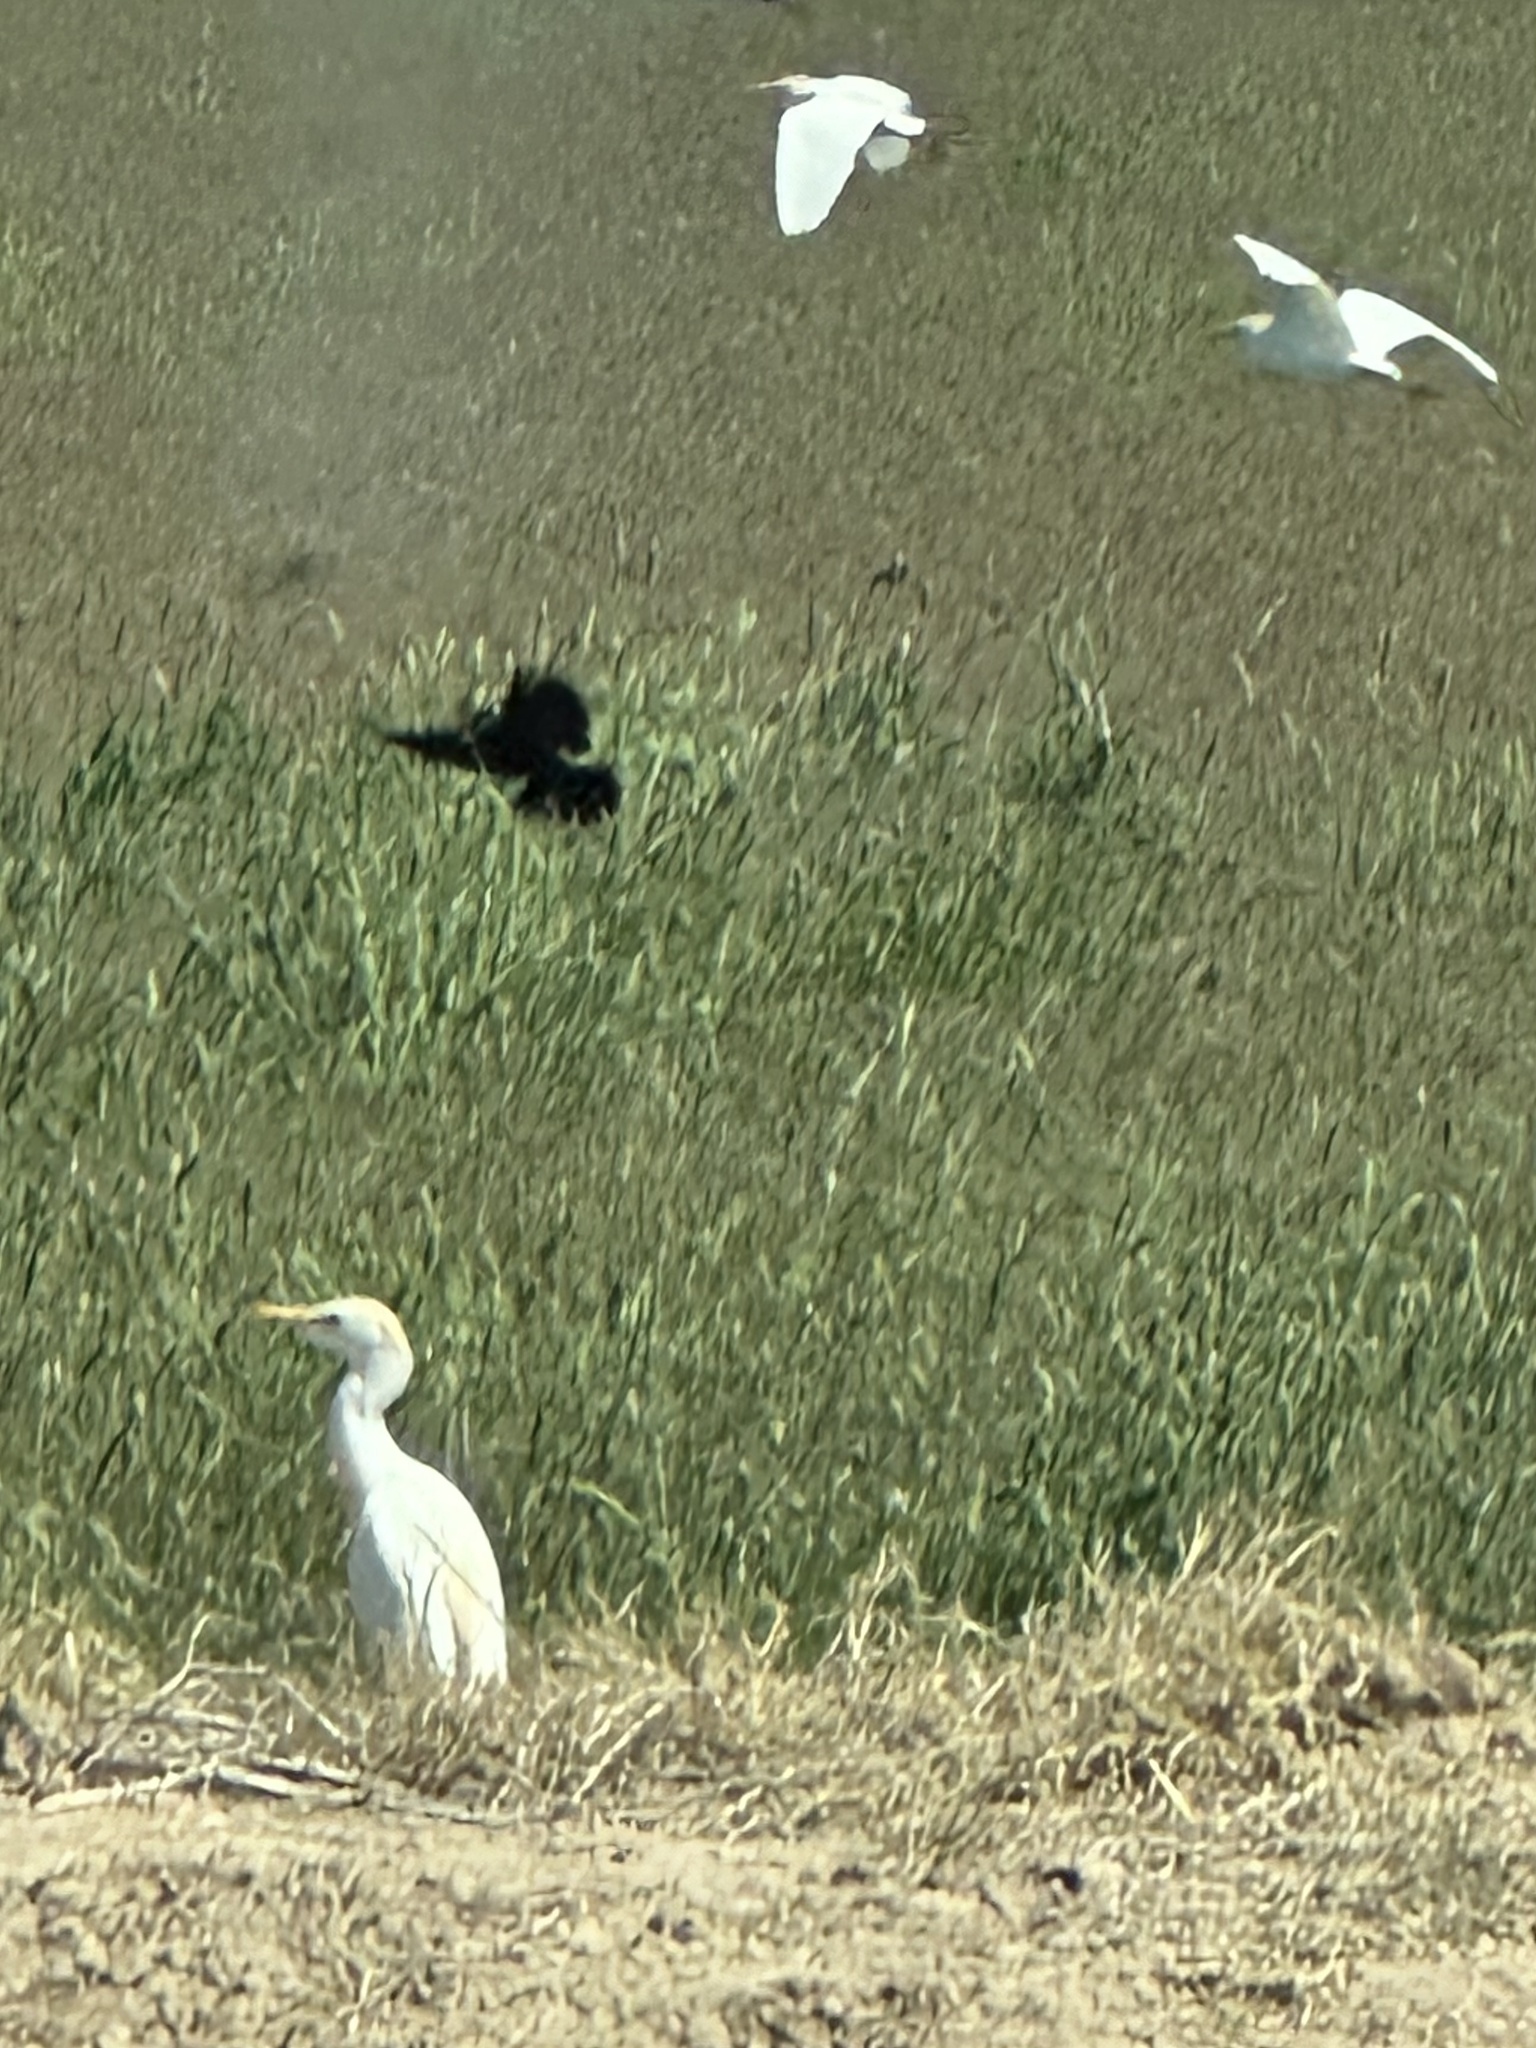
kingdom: Animalia
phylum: Chordata
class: Aves
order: Pelecaniformes
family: Ardeidae
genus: Bubulcus
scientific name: Bubulcus ibis
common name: Cattle egret
